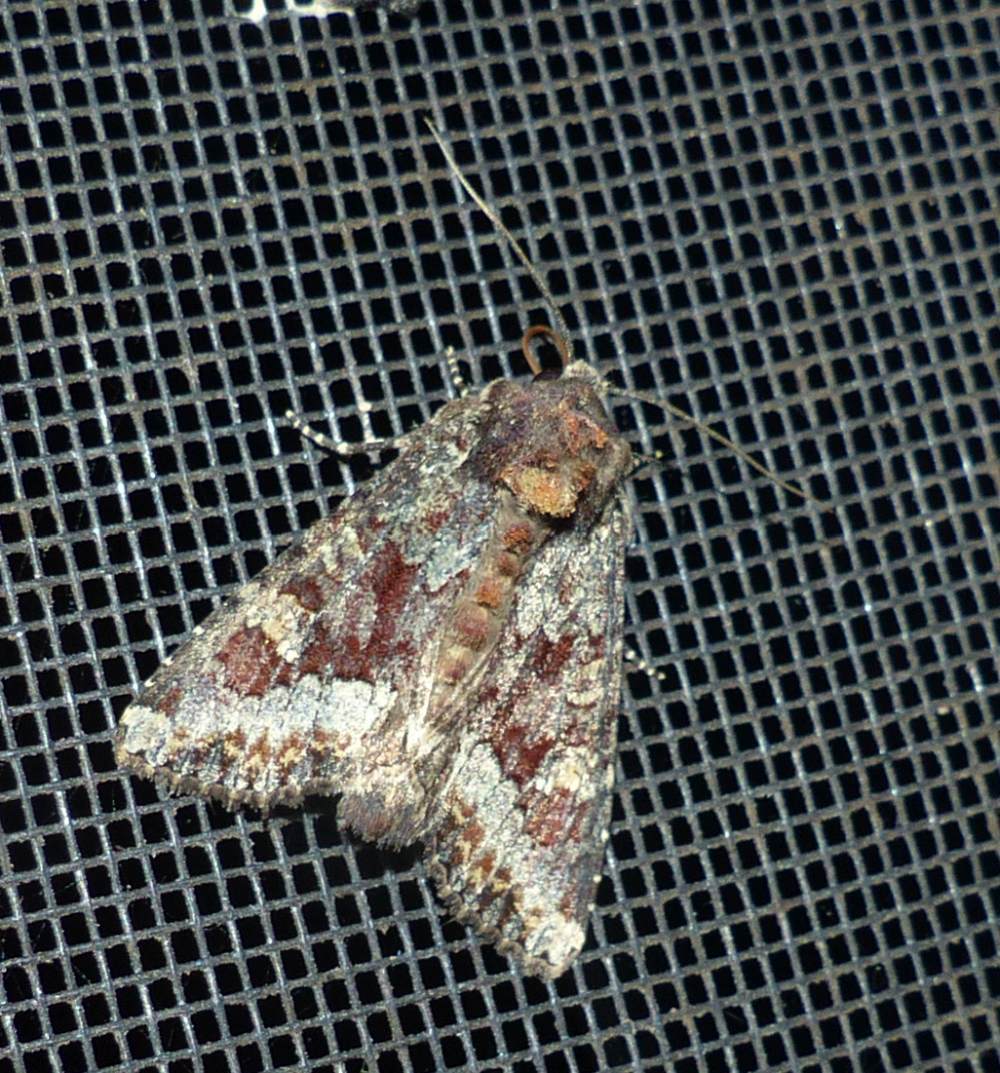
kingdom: Animalia
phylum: Arthropoda
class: Insecta
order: Lepidoptera
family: Noctuidae
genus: Apamea
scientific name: Apamea amputatrix
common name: Yellow-headed cutworm moth
